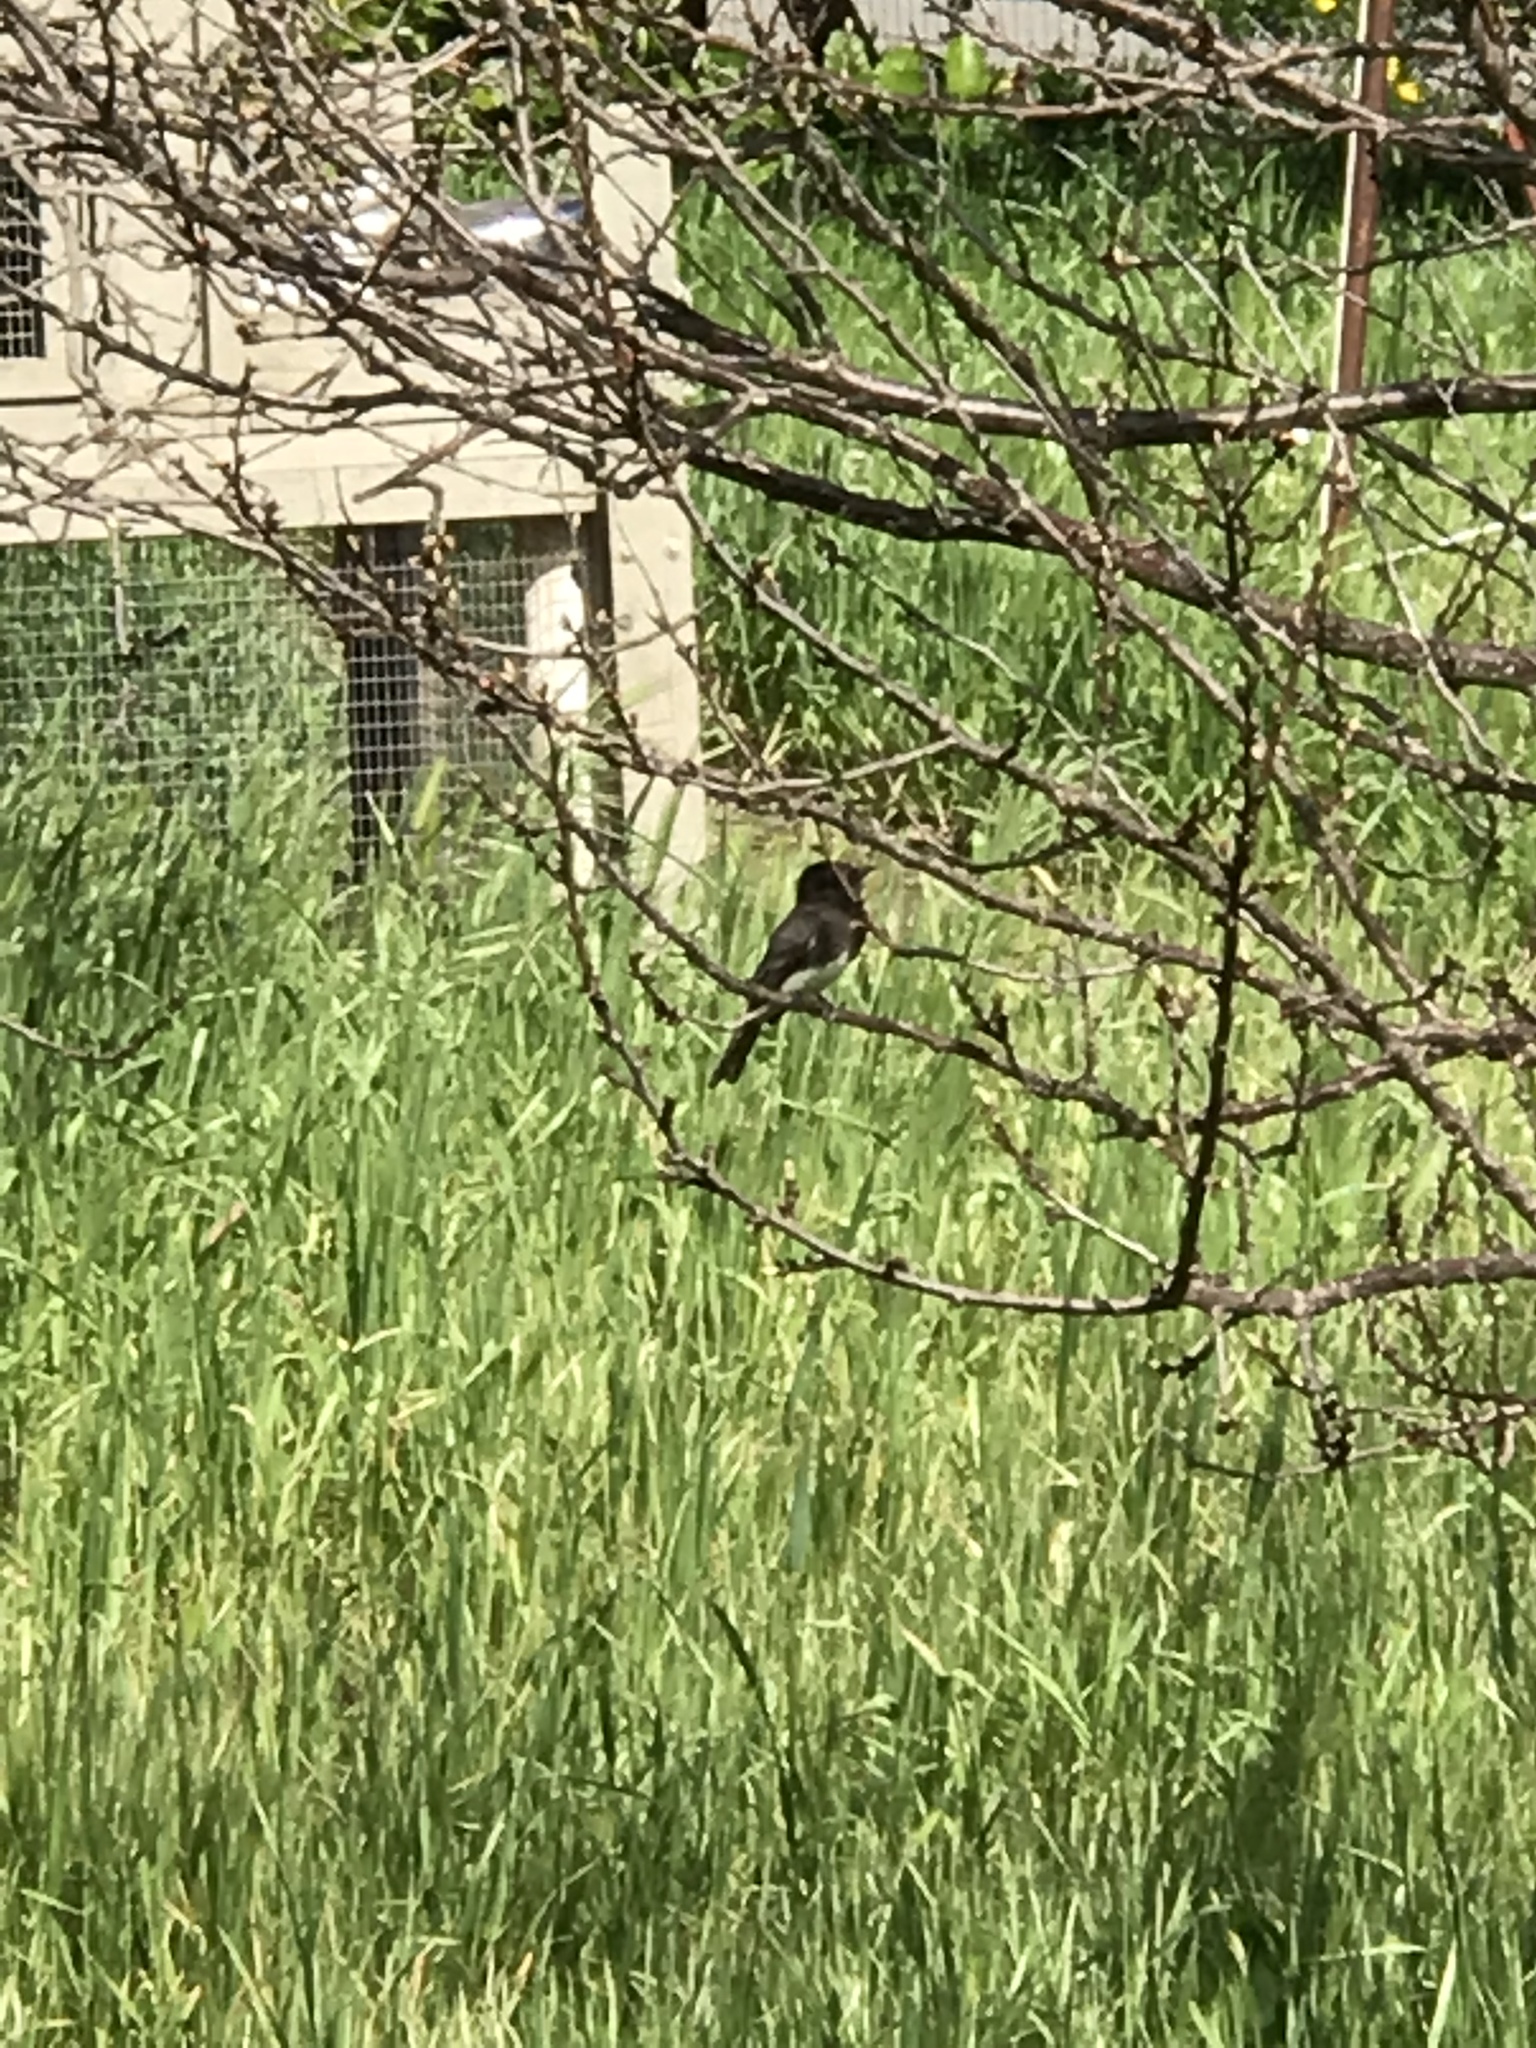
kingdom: Animalia
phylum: Chordata
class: Aves
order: Passeriformes
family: Tyrannidae
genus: Sayornis
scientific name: Sayornis nigricans
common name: Black phoebe
